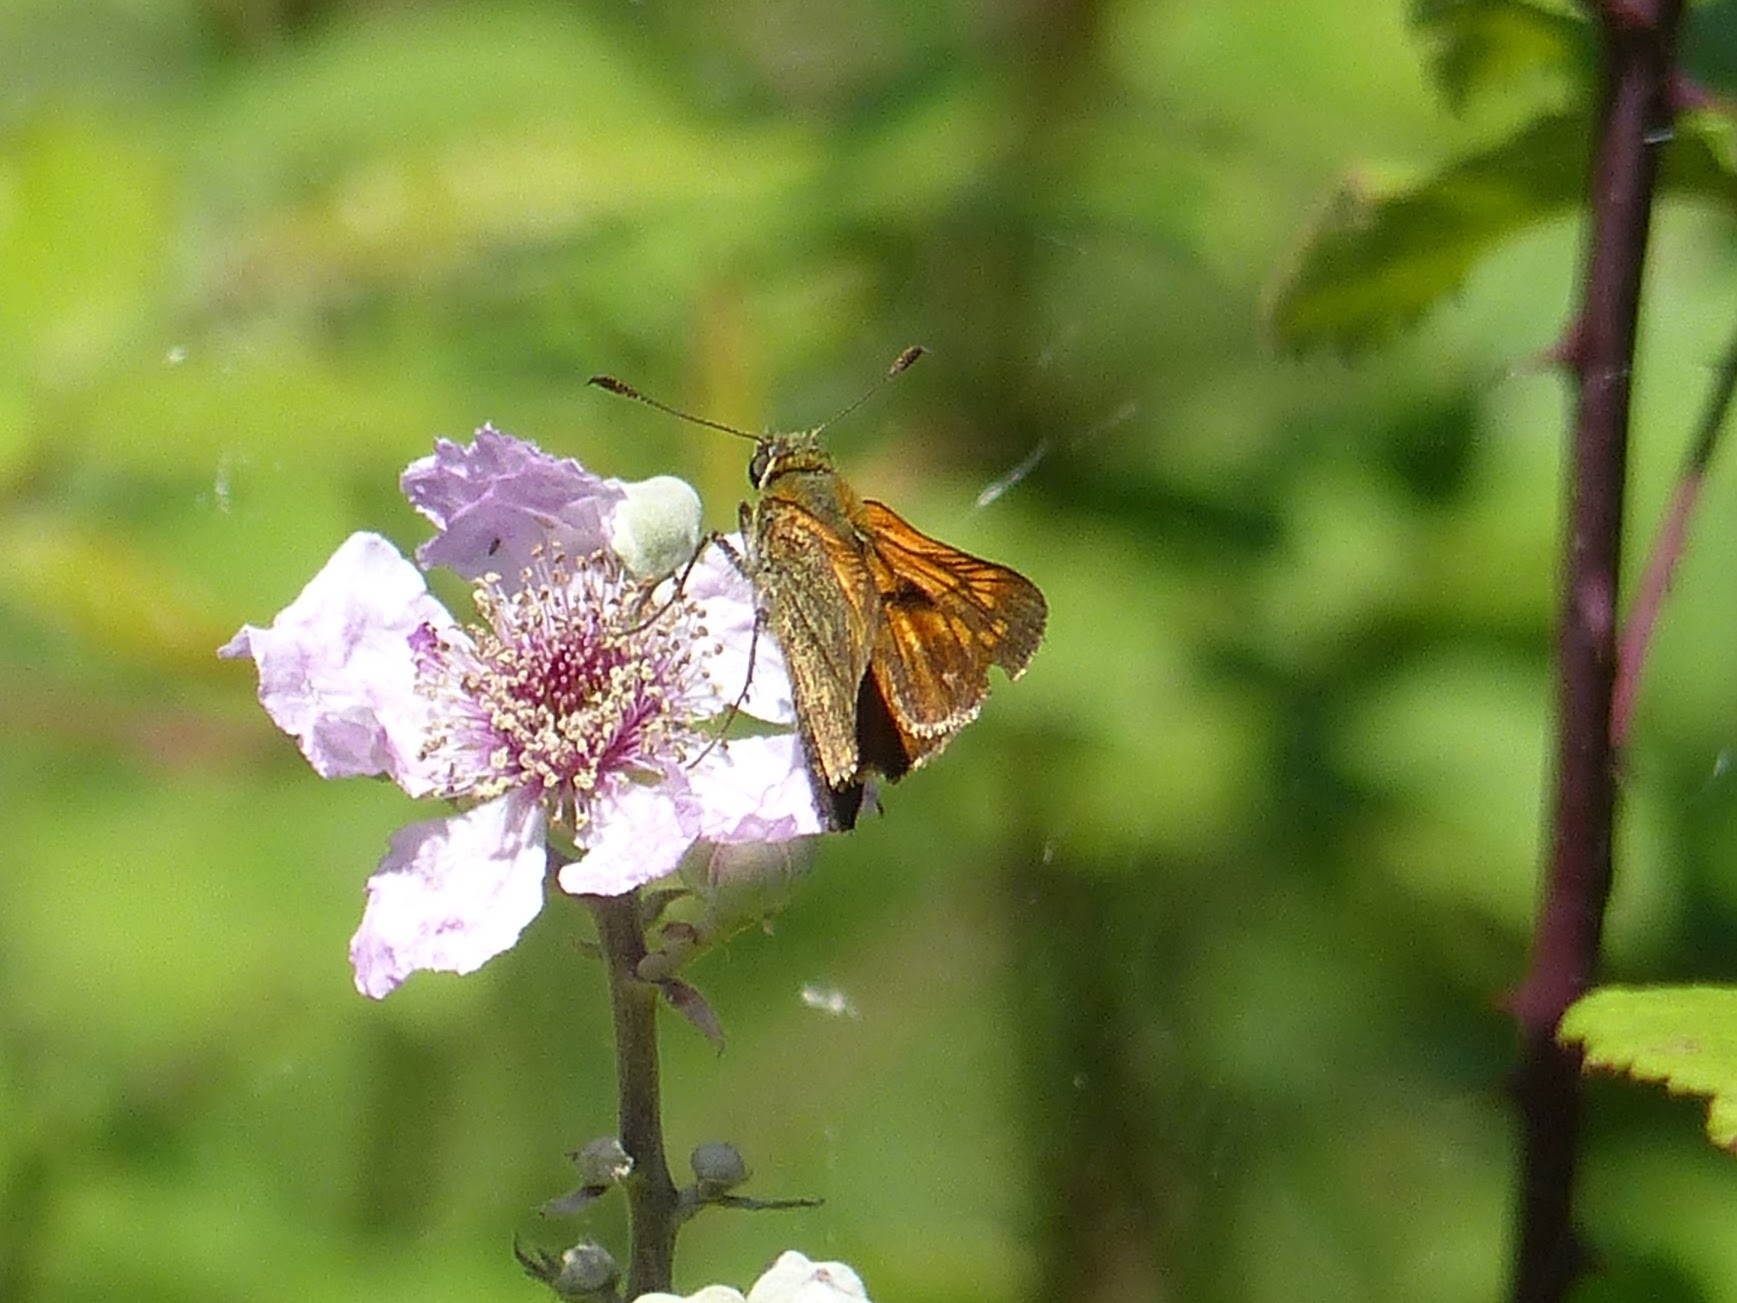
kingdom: Animalia
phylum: Arthropoda
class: Insecta
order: Lepidoptera
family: Hesperiidae
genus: Ochlodes
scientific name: Ochlodes venata
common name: Large skipper
